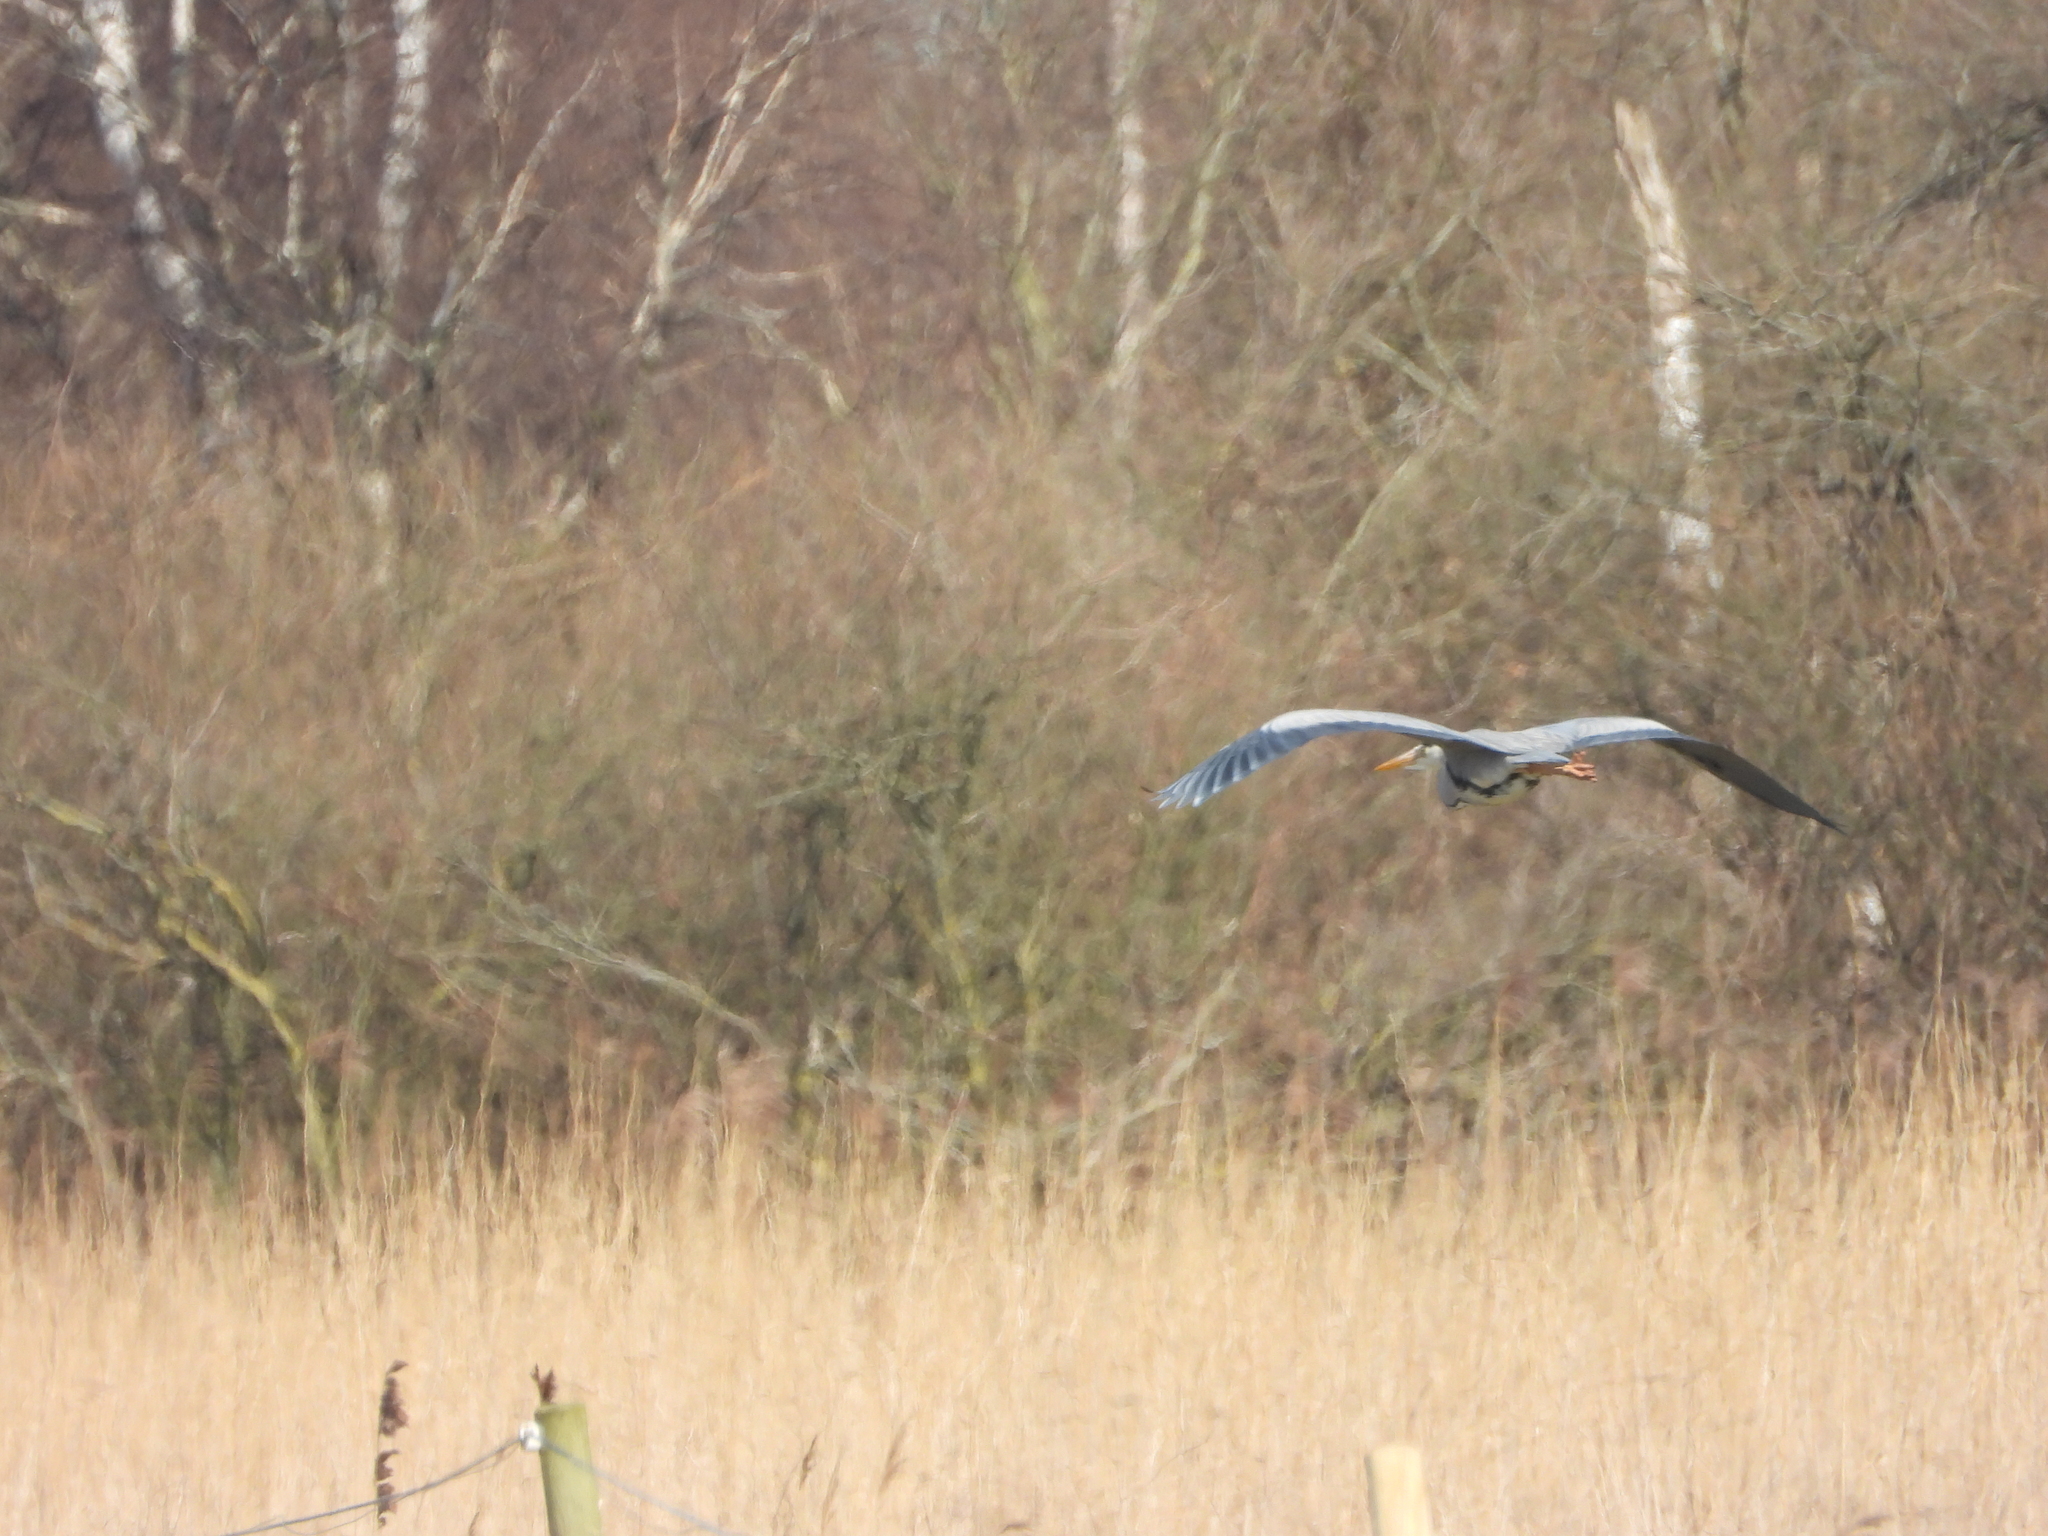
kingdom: Animalia
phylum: Chordata
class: Aves
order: Pelecaniformes
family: Ardeidae
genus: Ardea
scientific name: Ardea cinerea
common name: Grey heron
